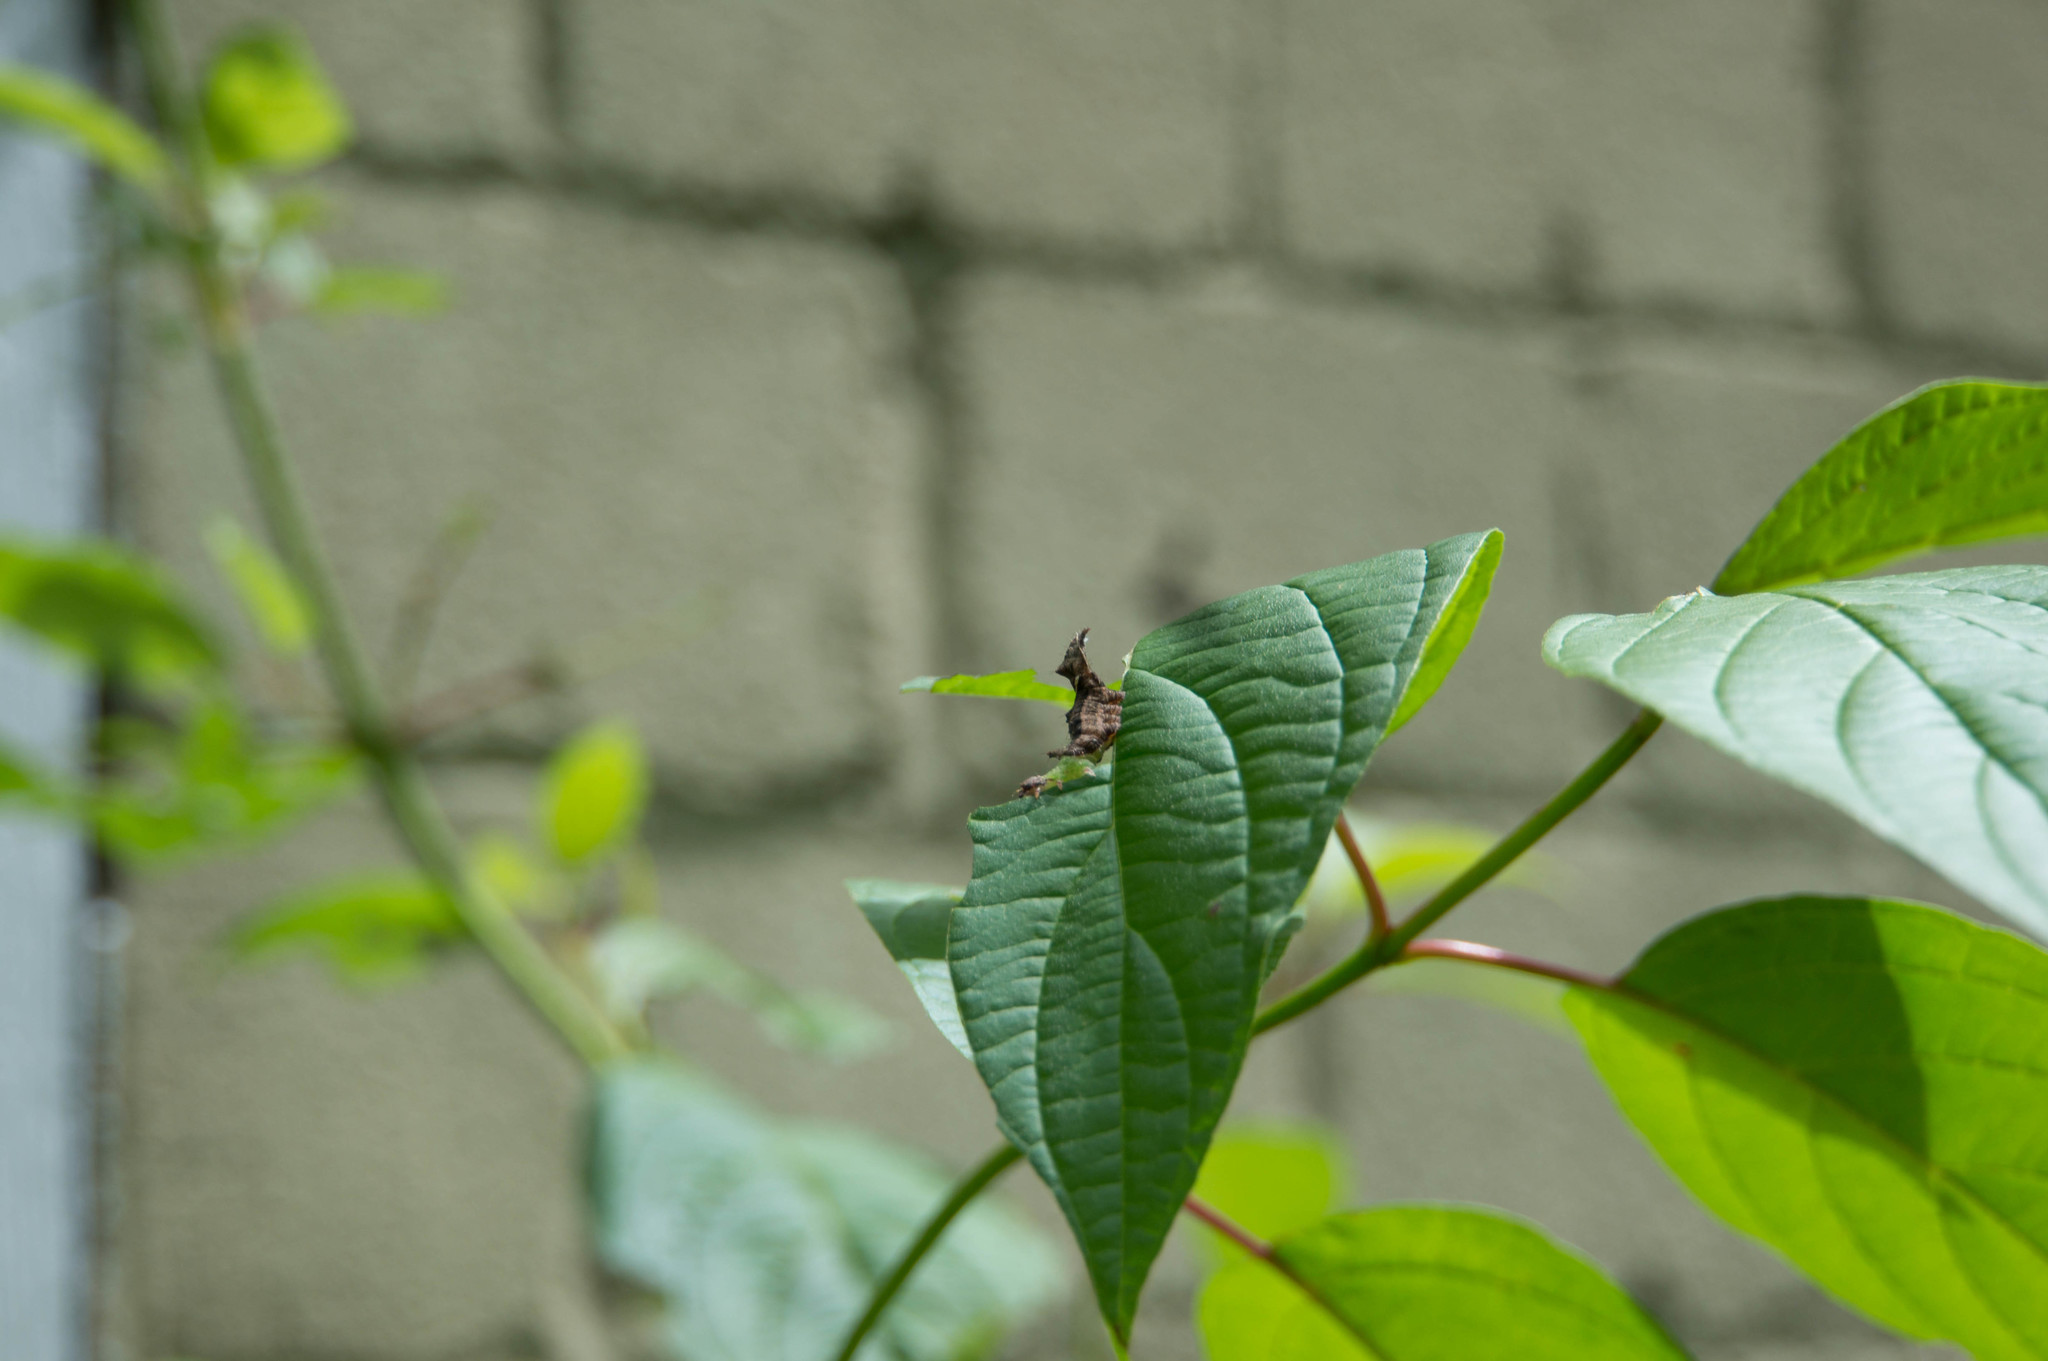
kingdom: Animalia
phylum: Arthropoda
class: Insecta
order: Lepidoptera
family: Notodontidae
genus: Schizura
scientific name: Schizura
